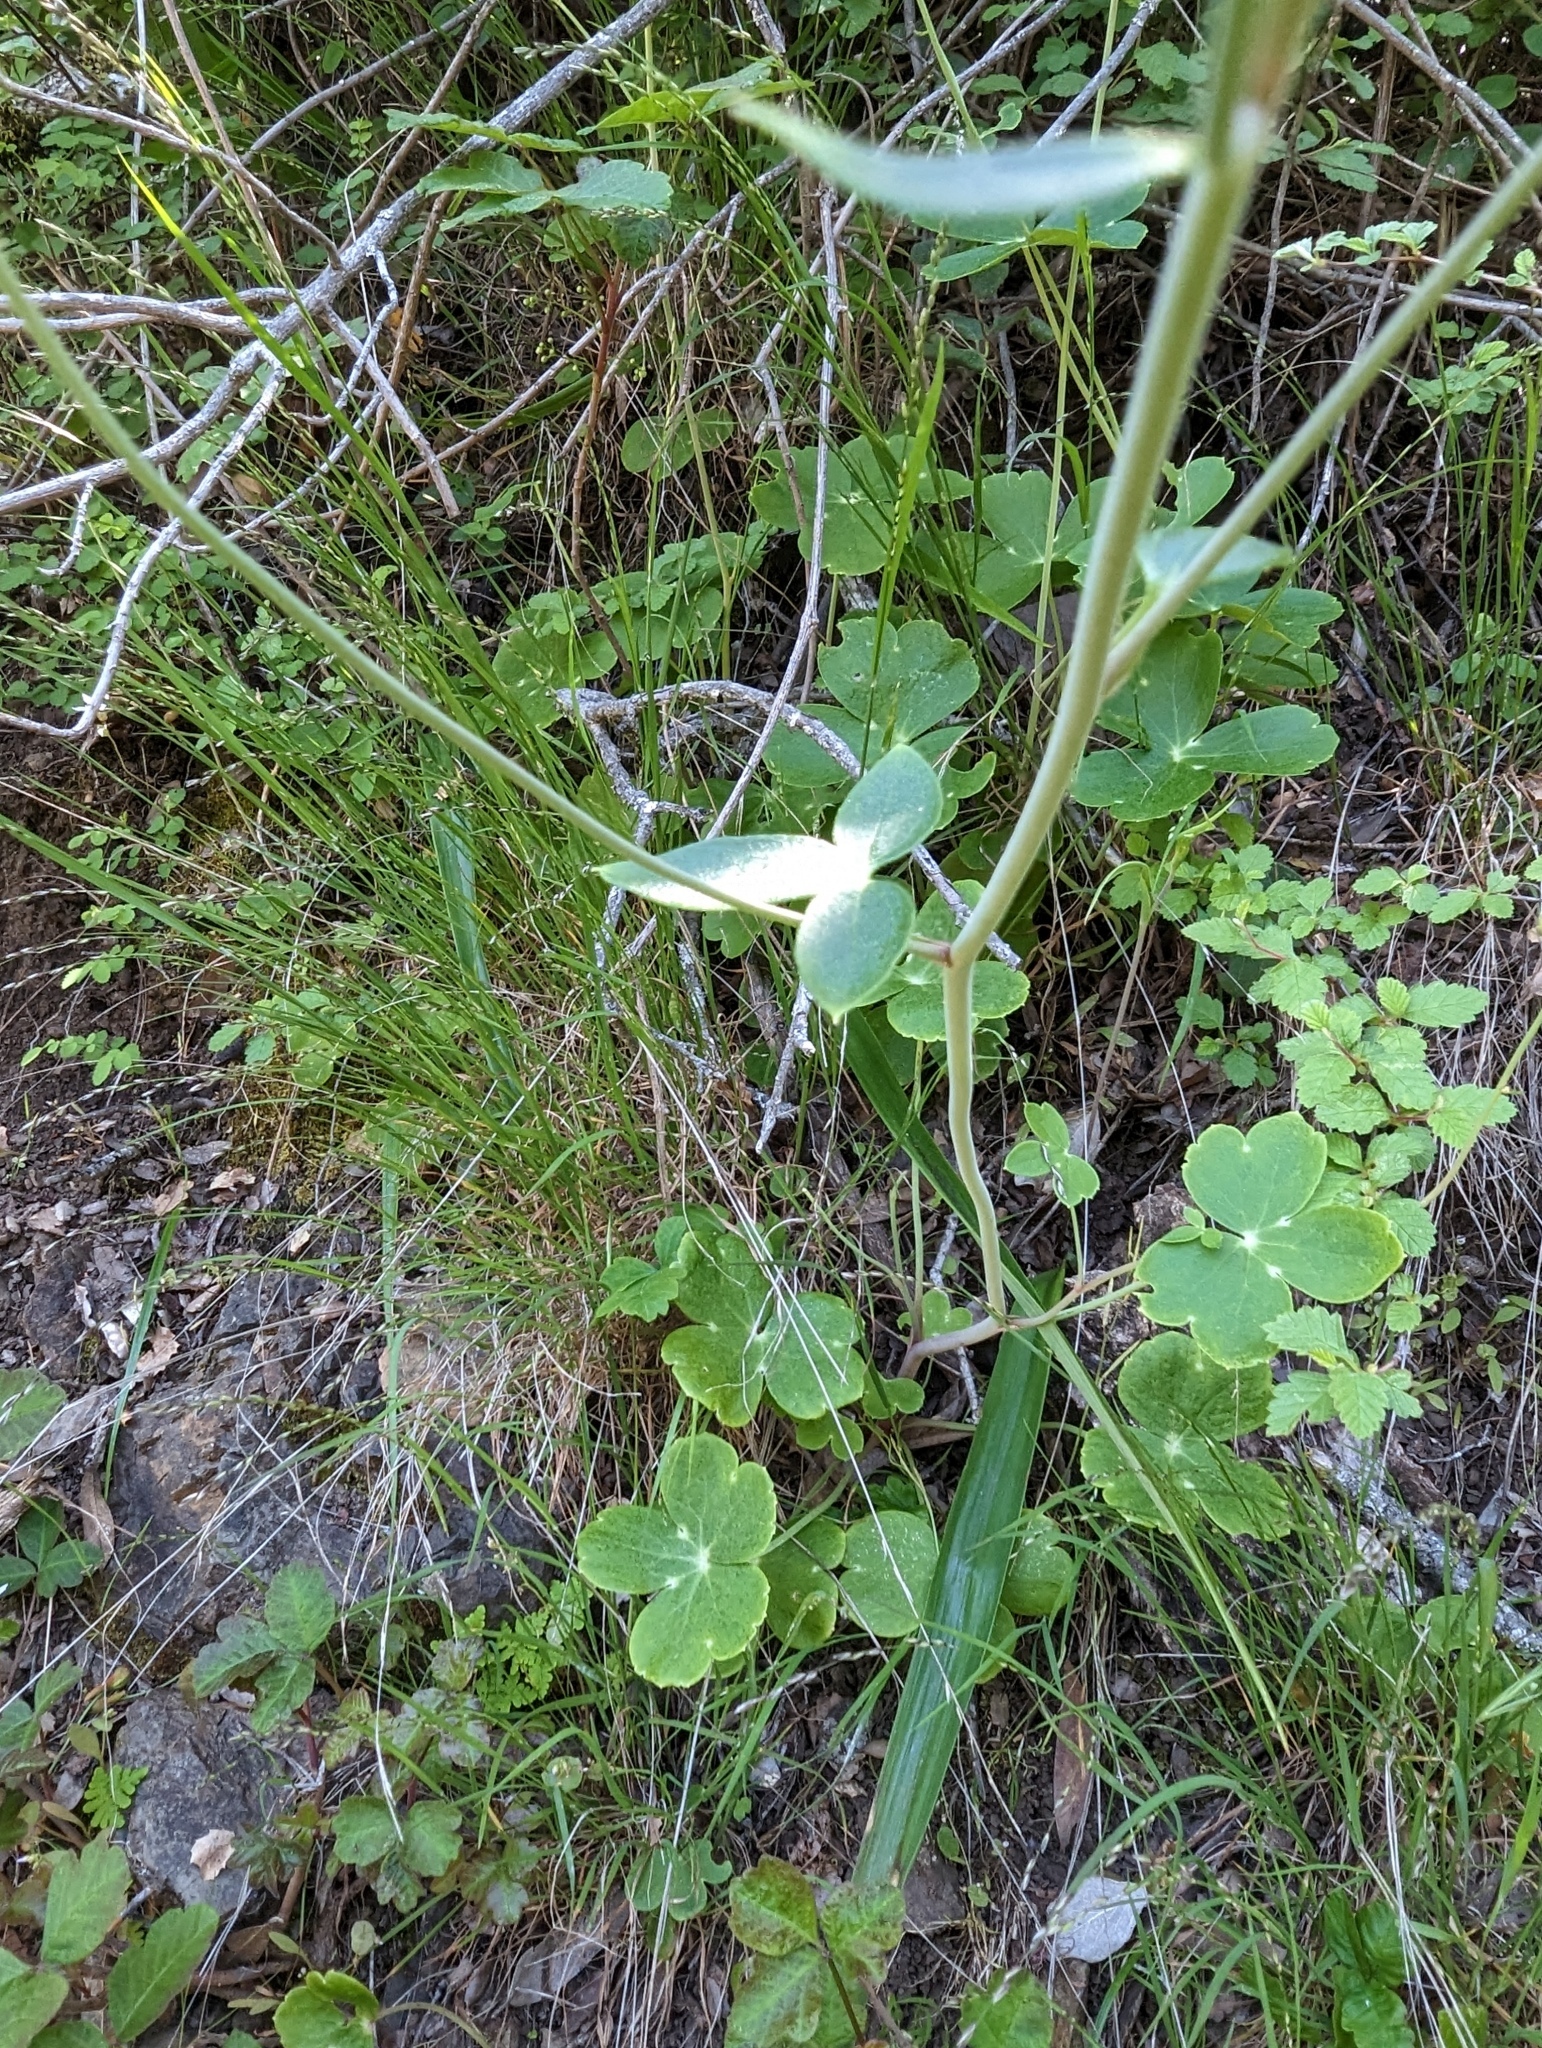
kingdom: Plantae
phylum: Tracheophyta
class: Magnoliopsida
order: Ranunculales
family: Ranunculaceae
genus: Delphinium
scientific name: Delphinium nudicaule
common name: Red larkspur
